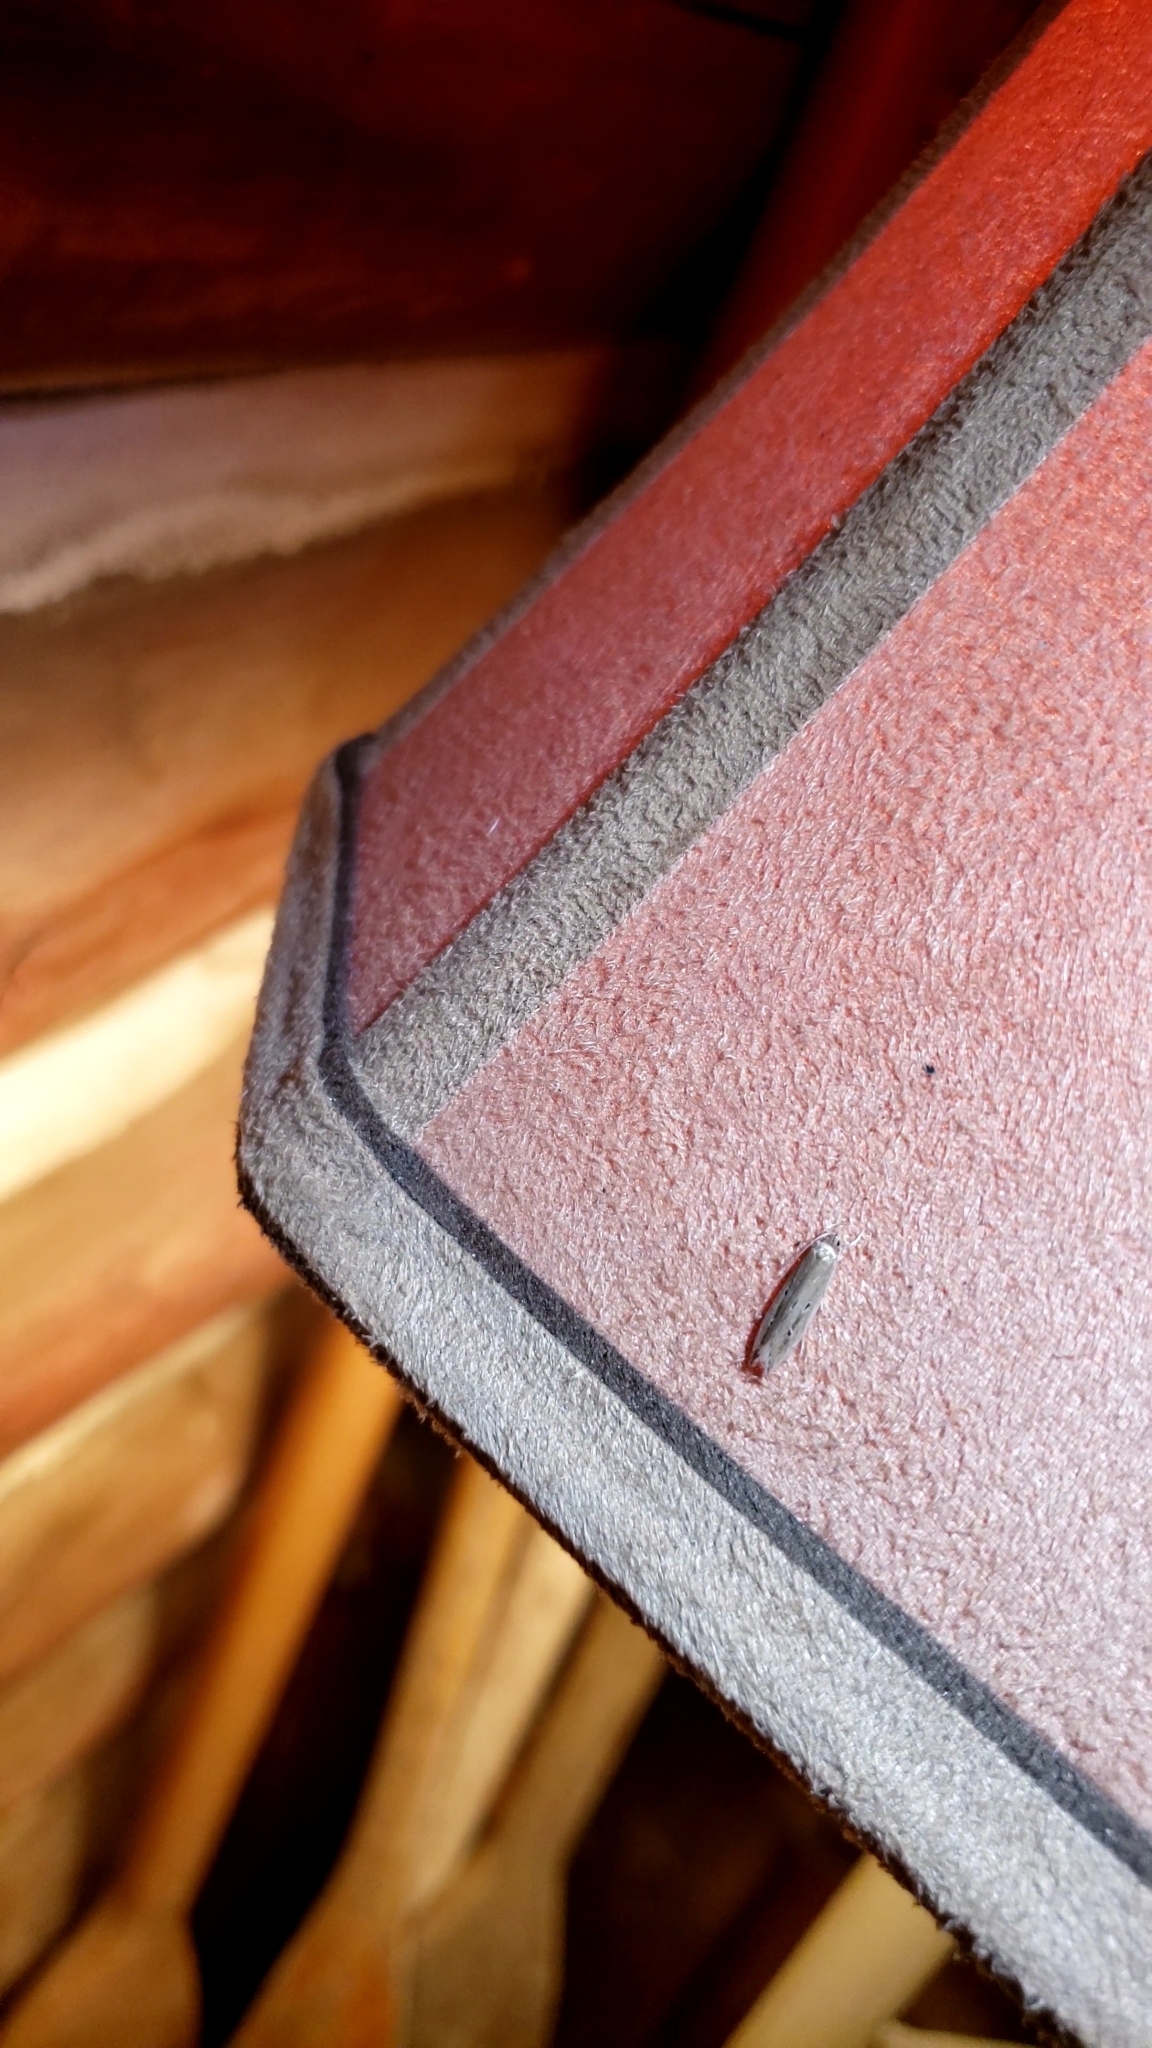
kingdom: Animalia
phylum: Arthropoda
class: Insecta
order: Lepidoptera
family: Cosmopterigidae
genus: Limnaecia
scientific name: Limnaecia phragmitella
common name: Bulrush cosmet
